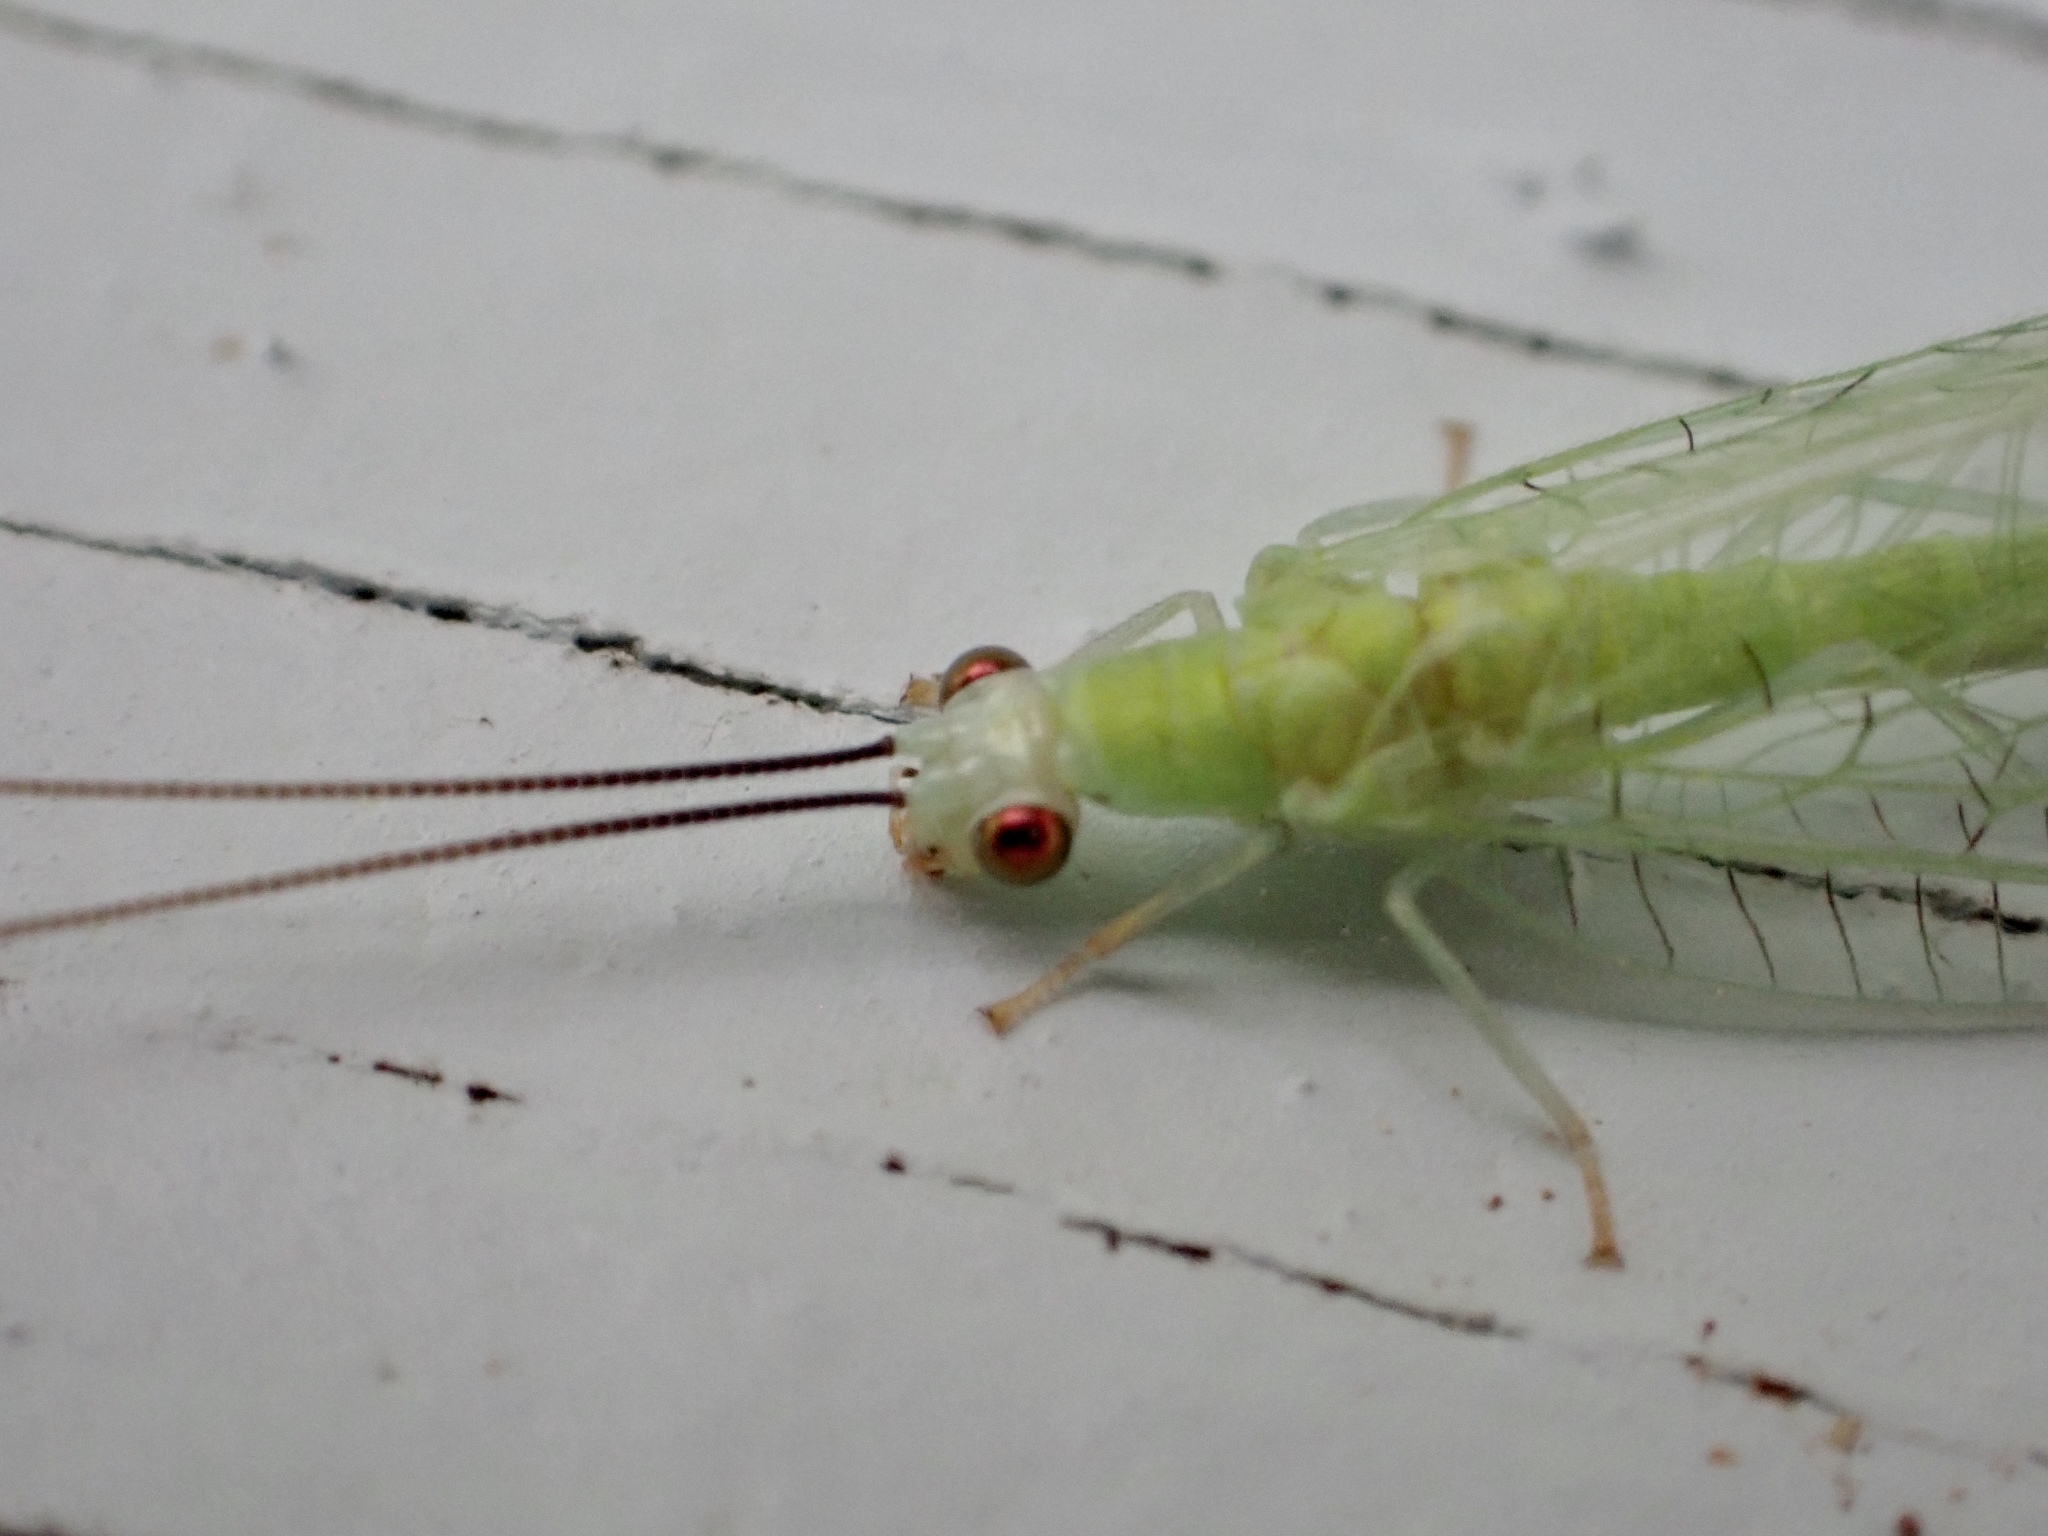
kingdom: Animalia
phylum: Arthropoda
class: Insecta
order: Neuroptera
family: Chrysopidae
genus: Chrysopa
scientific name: Chrysopa nigricornis
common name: Black-horned green lacewing
